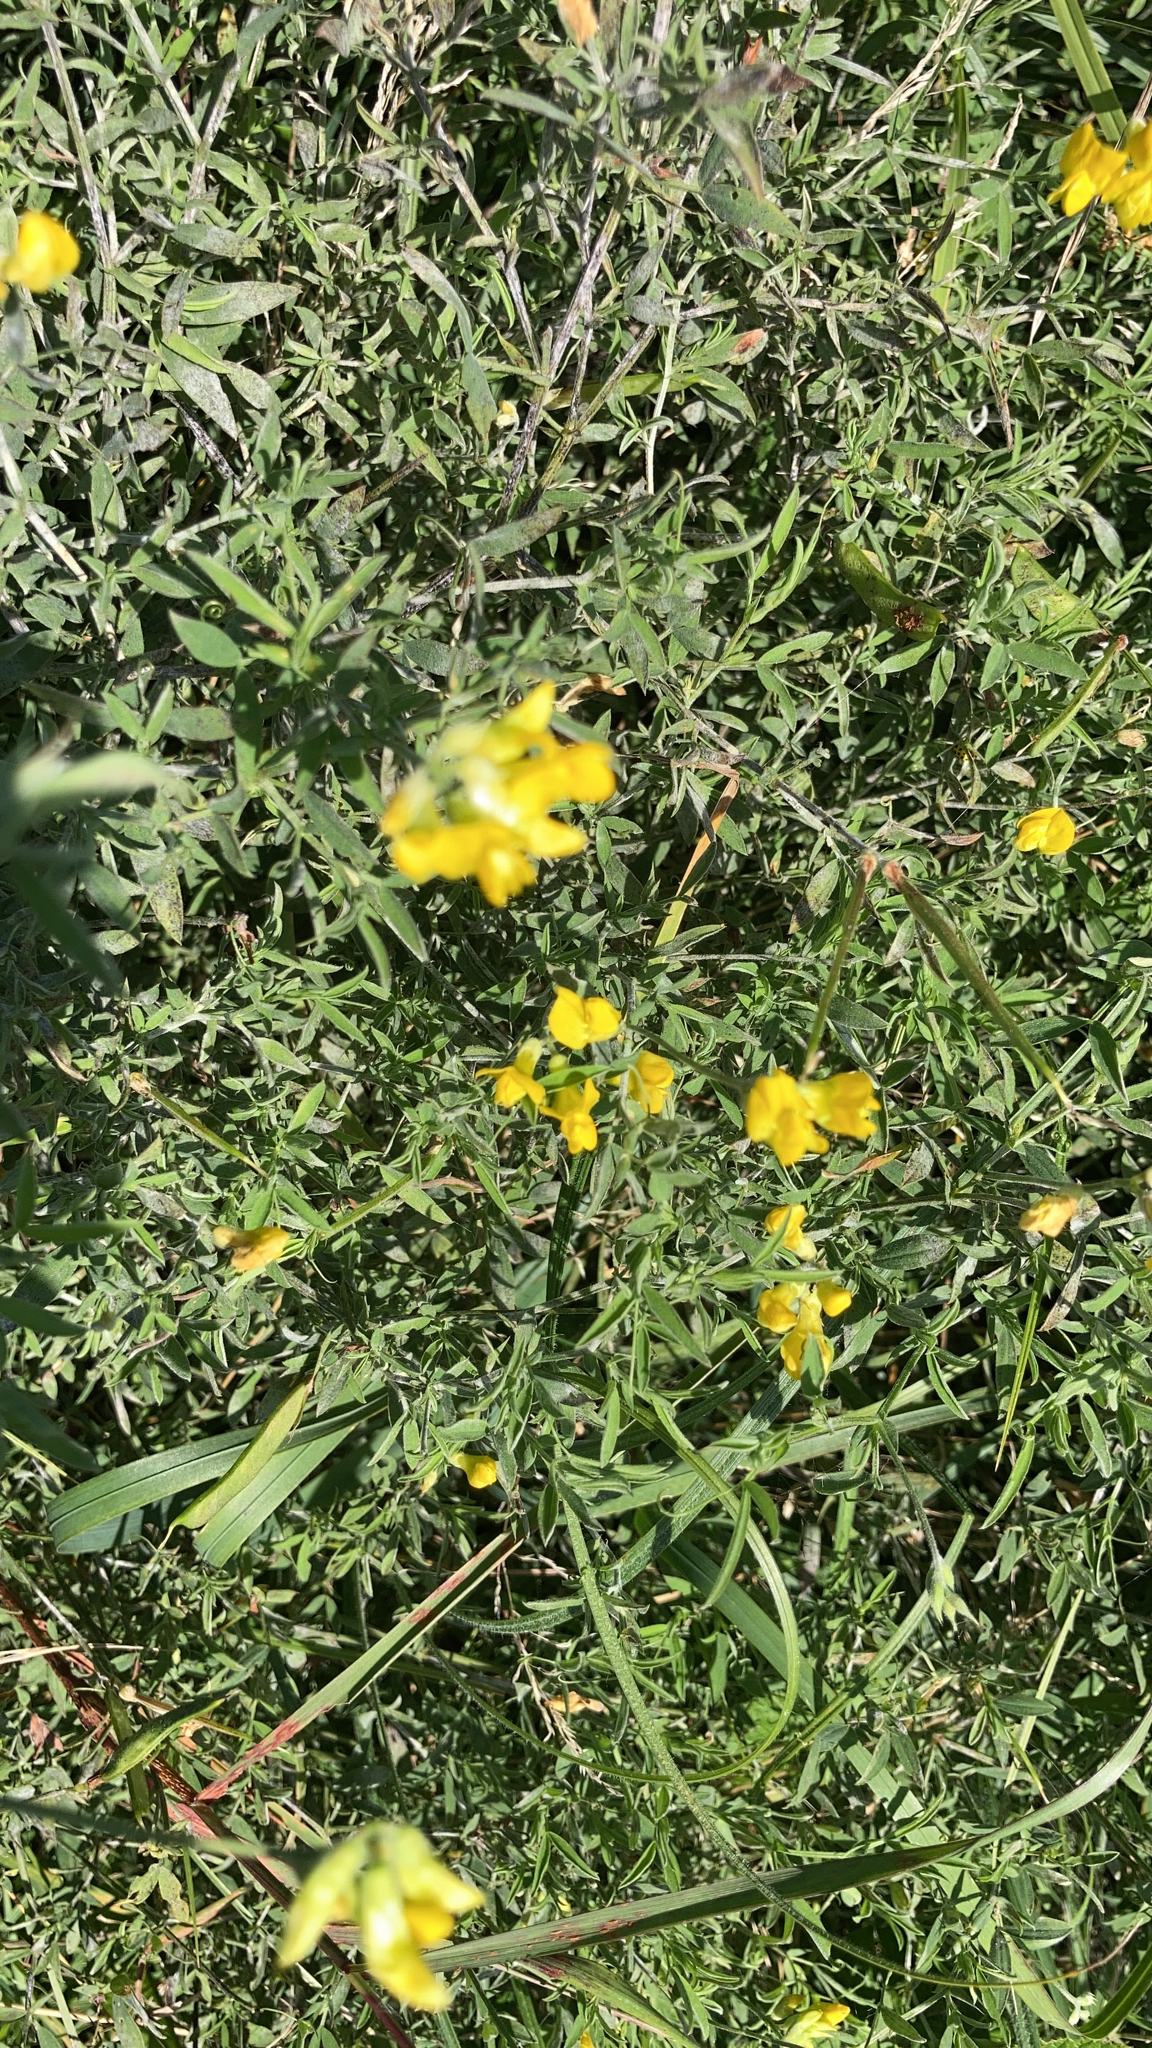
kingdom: Plantae
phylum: Tracheophyta
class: Magnoliopsida
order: Fabales
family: Fabaceae
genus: Lathyrus
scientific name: Lathyrus pratensis
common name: Meadow vetchling
